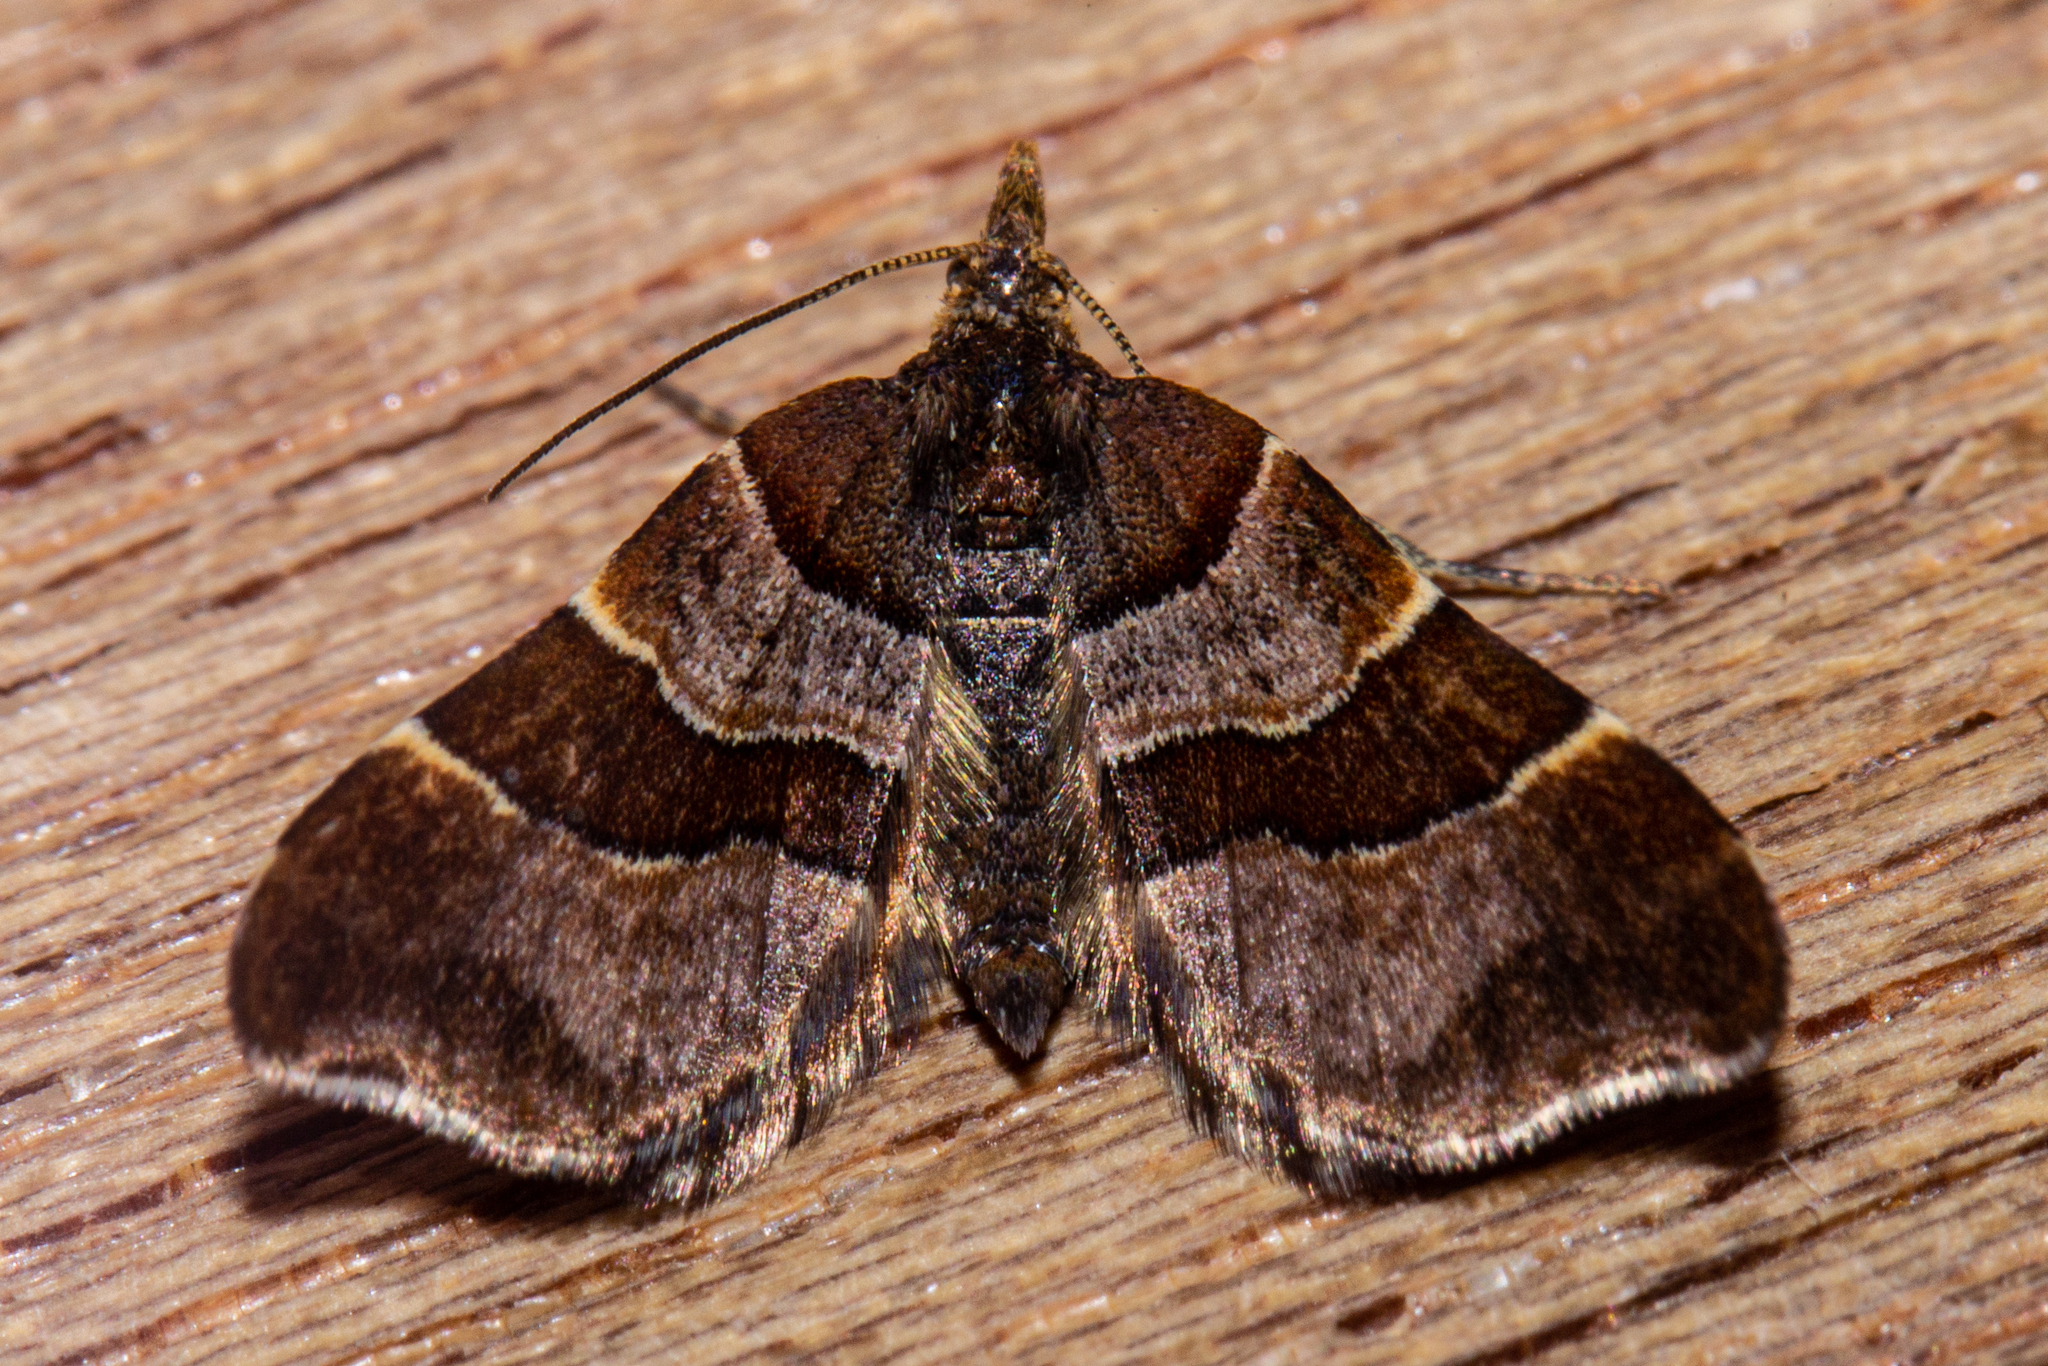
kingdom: Animalia
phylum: Arthropoda
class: Insecta
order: Lepidoptera
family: Geometridae
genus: Cephalissa
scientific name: Cephalissa siria
